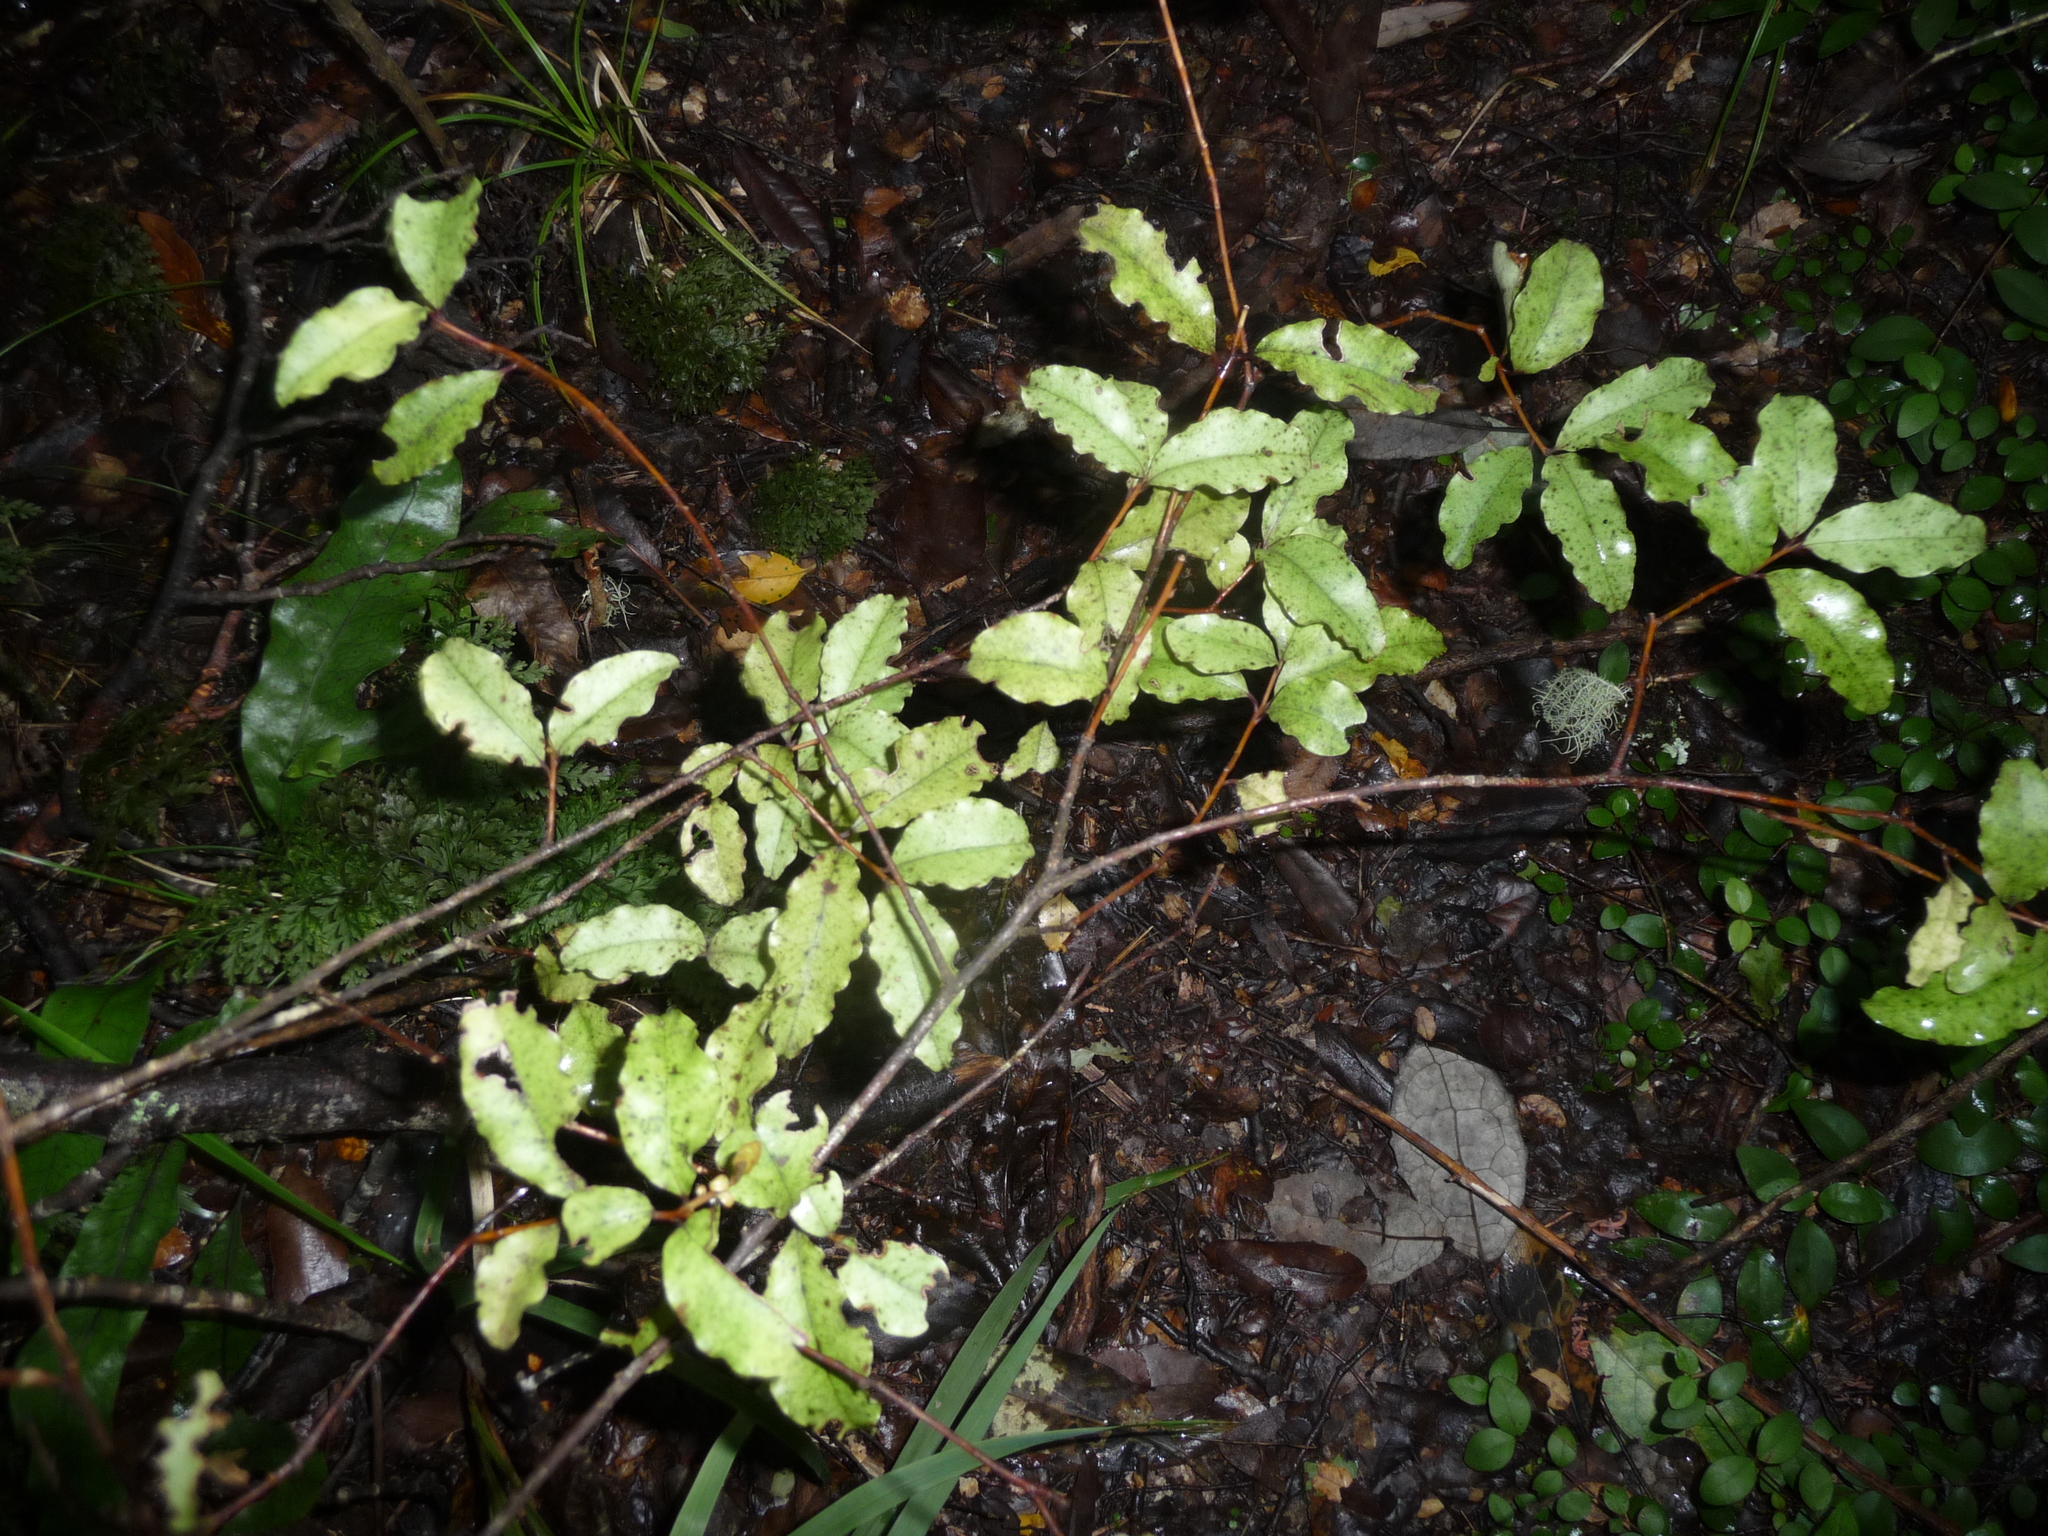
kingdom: Plantae
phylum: Tracheophyta
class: Magnoliopsida
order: Ericales
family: Primulaceae
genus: Myrsine
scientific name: Myrsine australis
